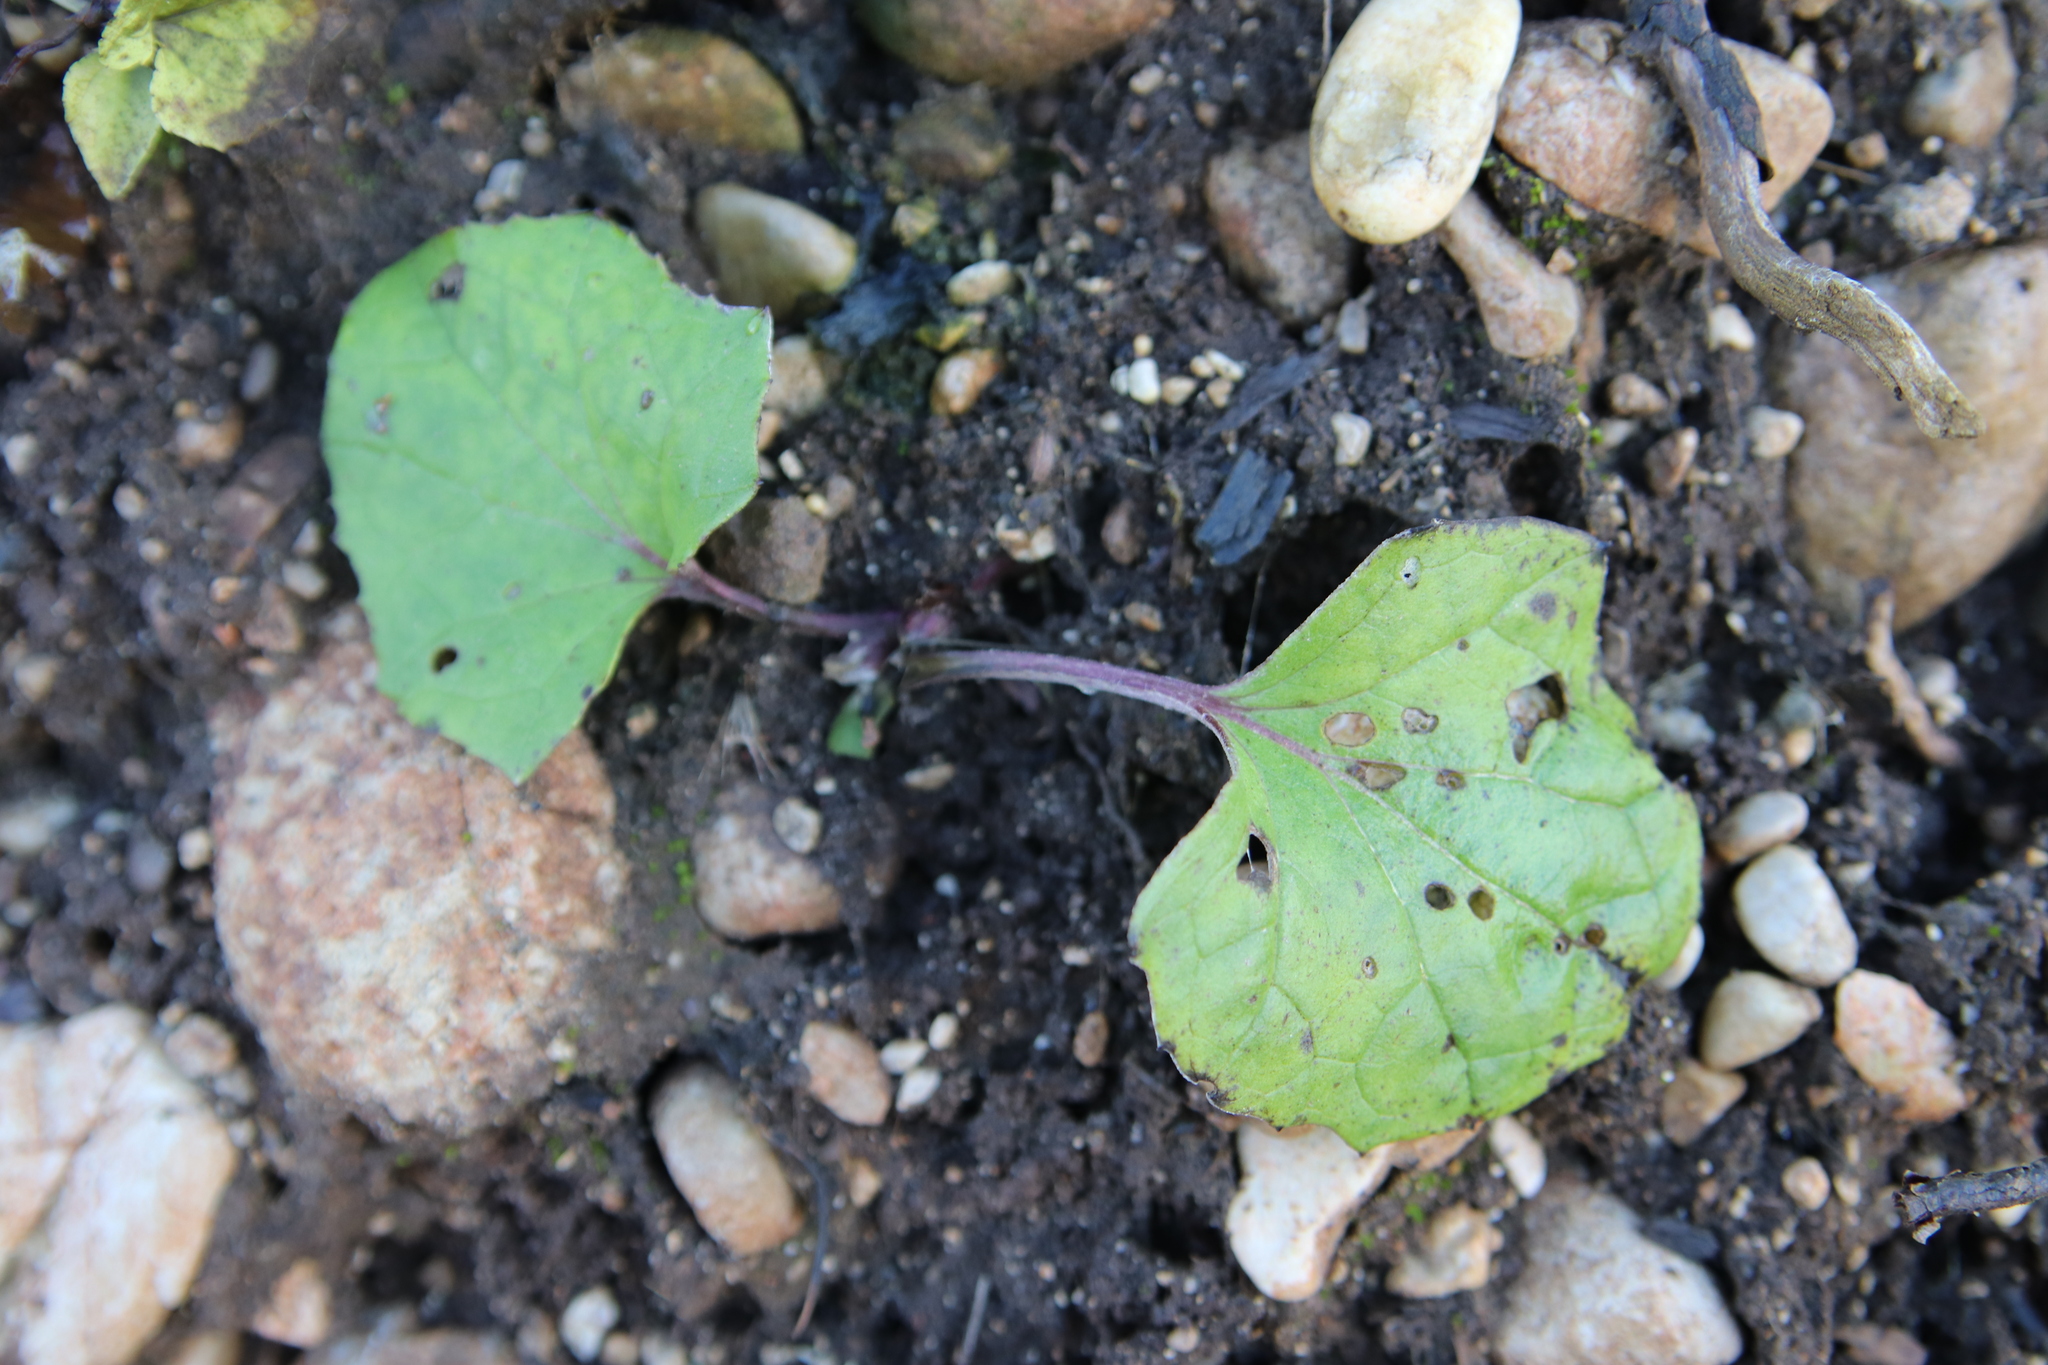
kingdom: Plantae
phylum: Tracheophyta
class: Magnoliopsida
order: Asterales
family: Asteraceae
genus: Tussilago
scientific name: Tussilago farfara
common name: Coltsfoot
